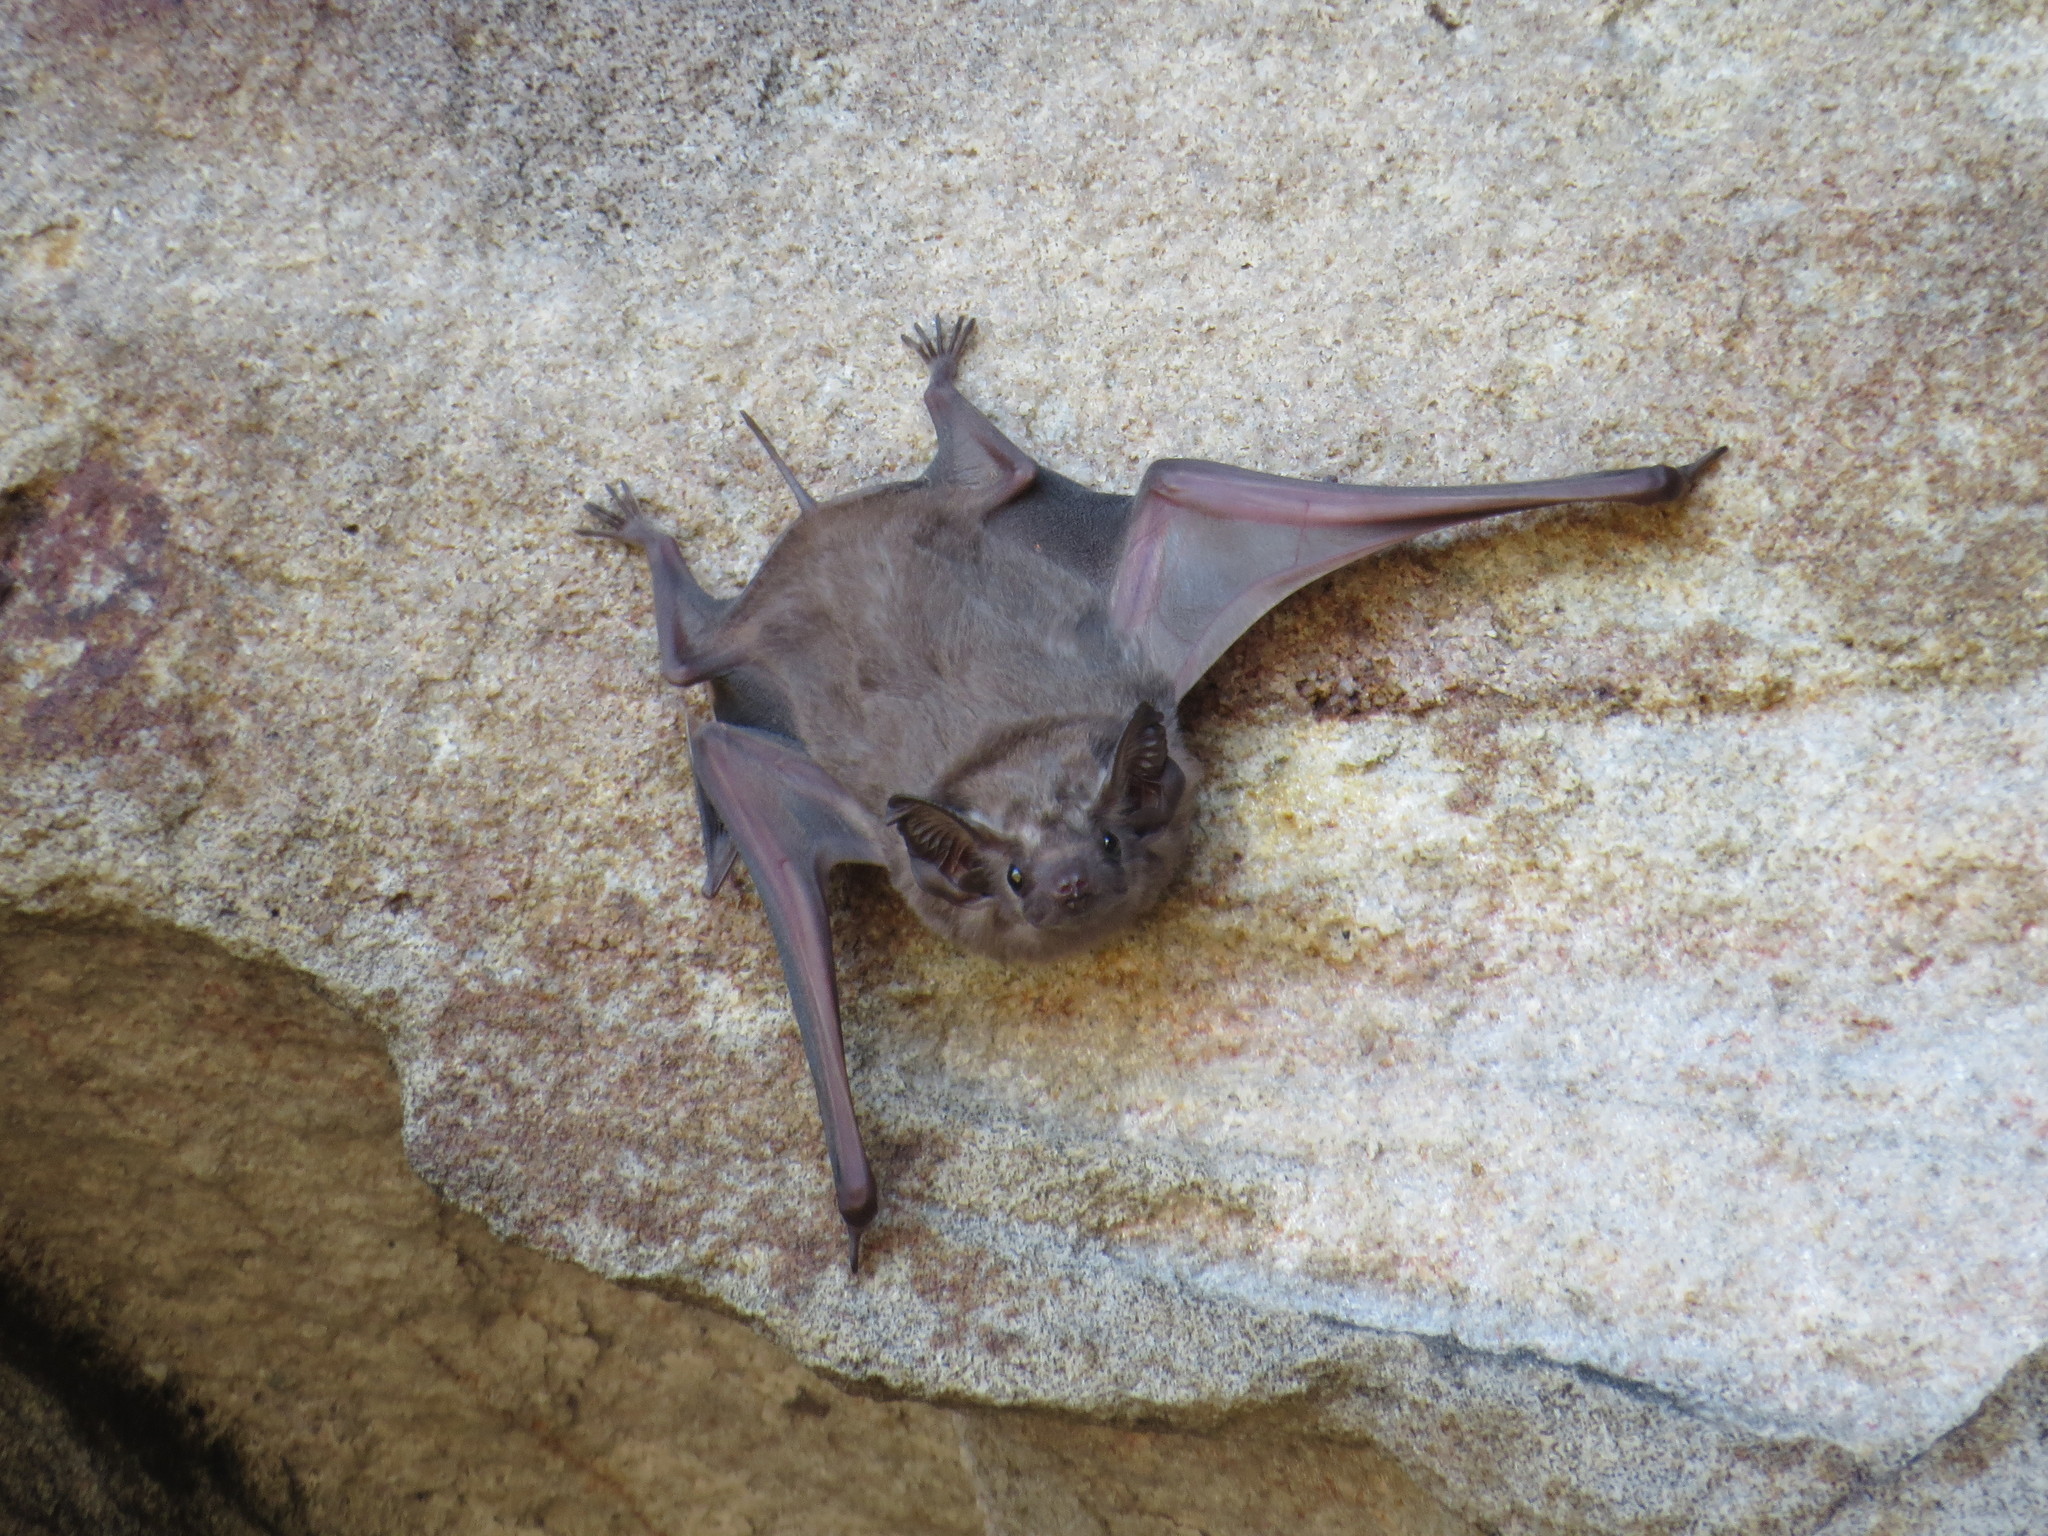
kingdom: Animalia
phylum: Chordata
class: Mammalia
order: Chiroptera
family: Emballonuridae
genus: Taphozous
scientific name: Taphozous australis
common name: Coastal tomb bat
